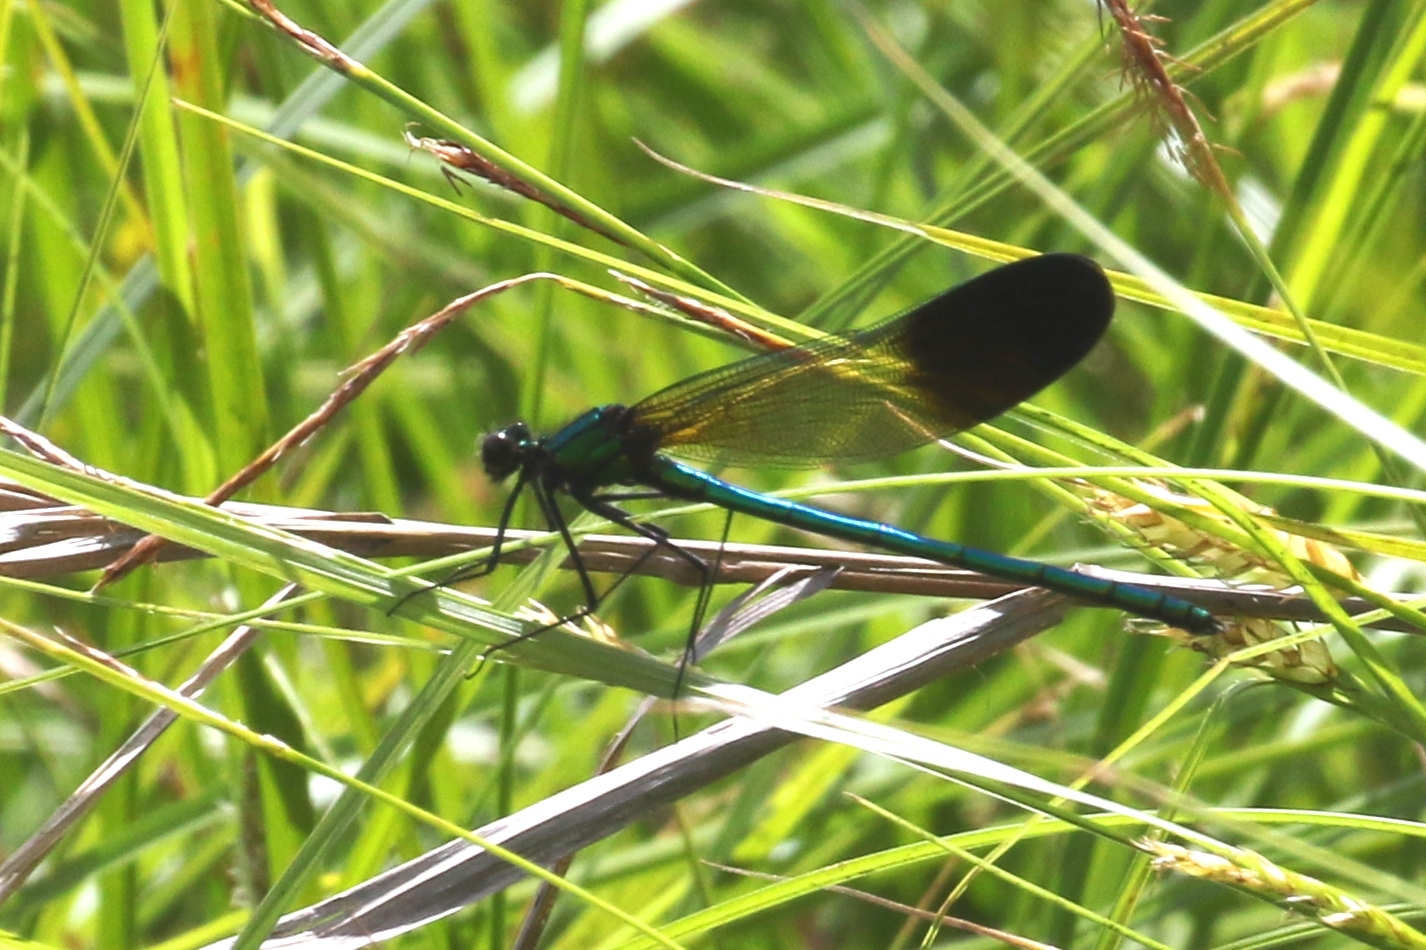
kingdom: Animalia
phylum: Arthropoda
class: Insecta
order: Odonata
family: Calopterygidae
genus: Calopteryx
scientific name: Calopteryx aequabilis
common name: River jewelwing
